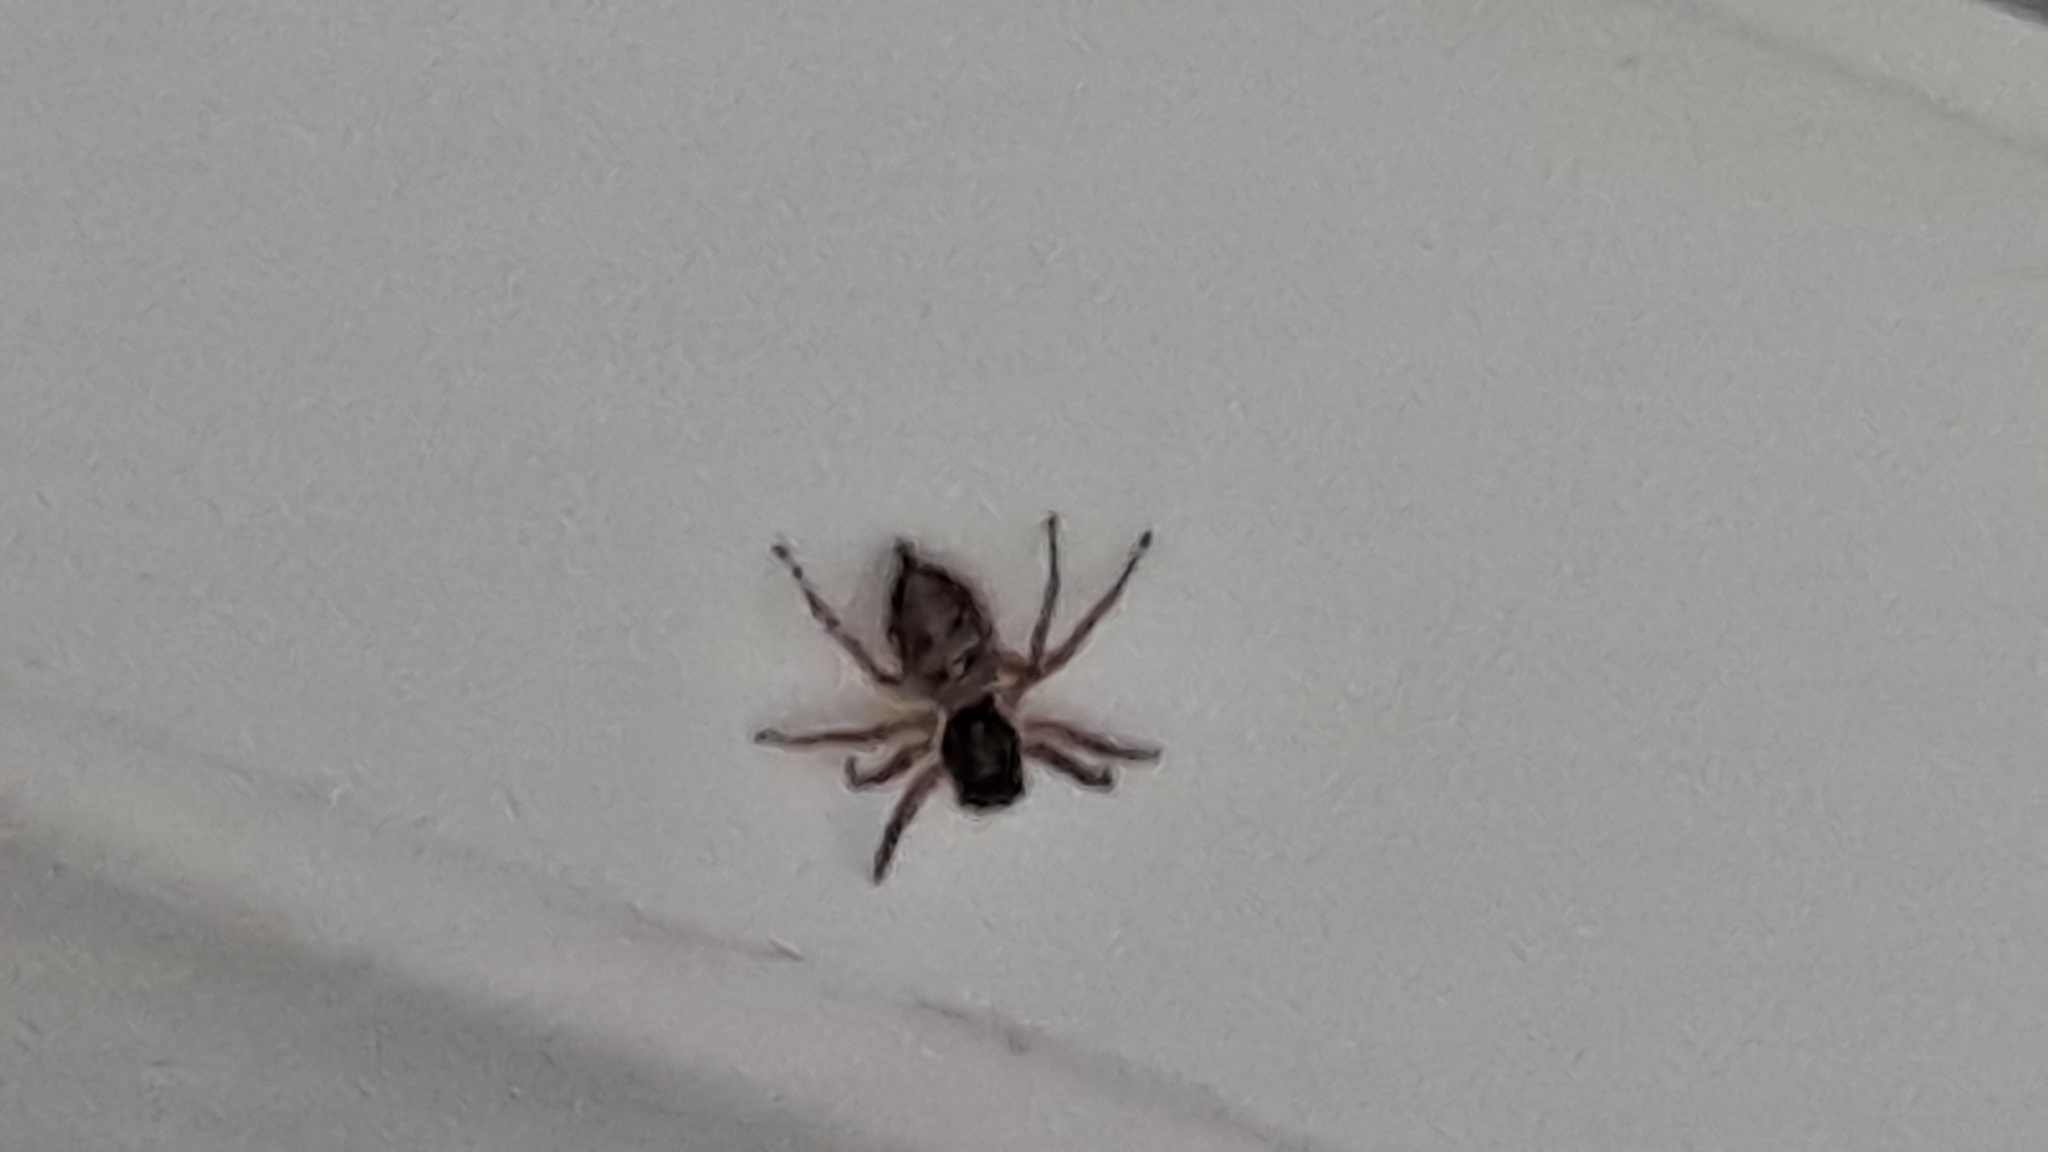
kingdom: Animalia
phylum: Arthropoda
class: Arachnida
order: Araneae
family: Salticidae
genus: Menemerus
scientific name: Menemerus semilimbatus
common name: Jumping spider
